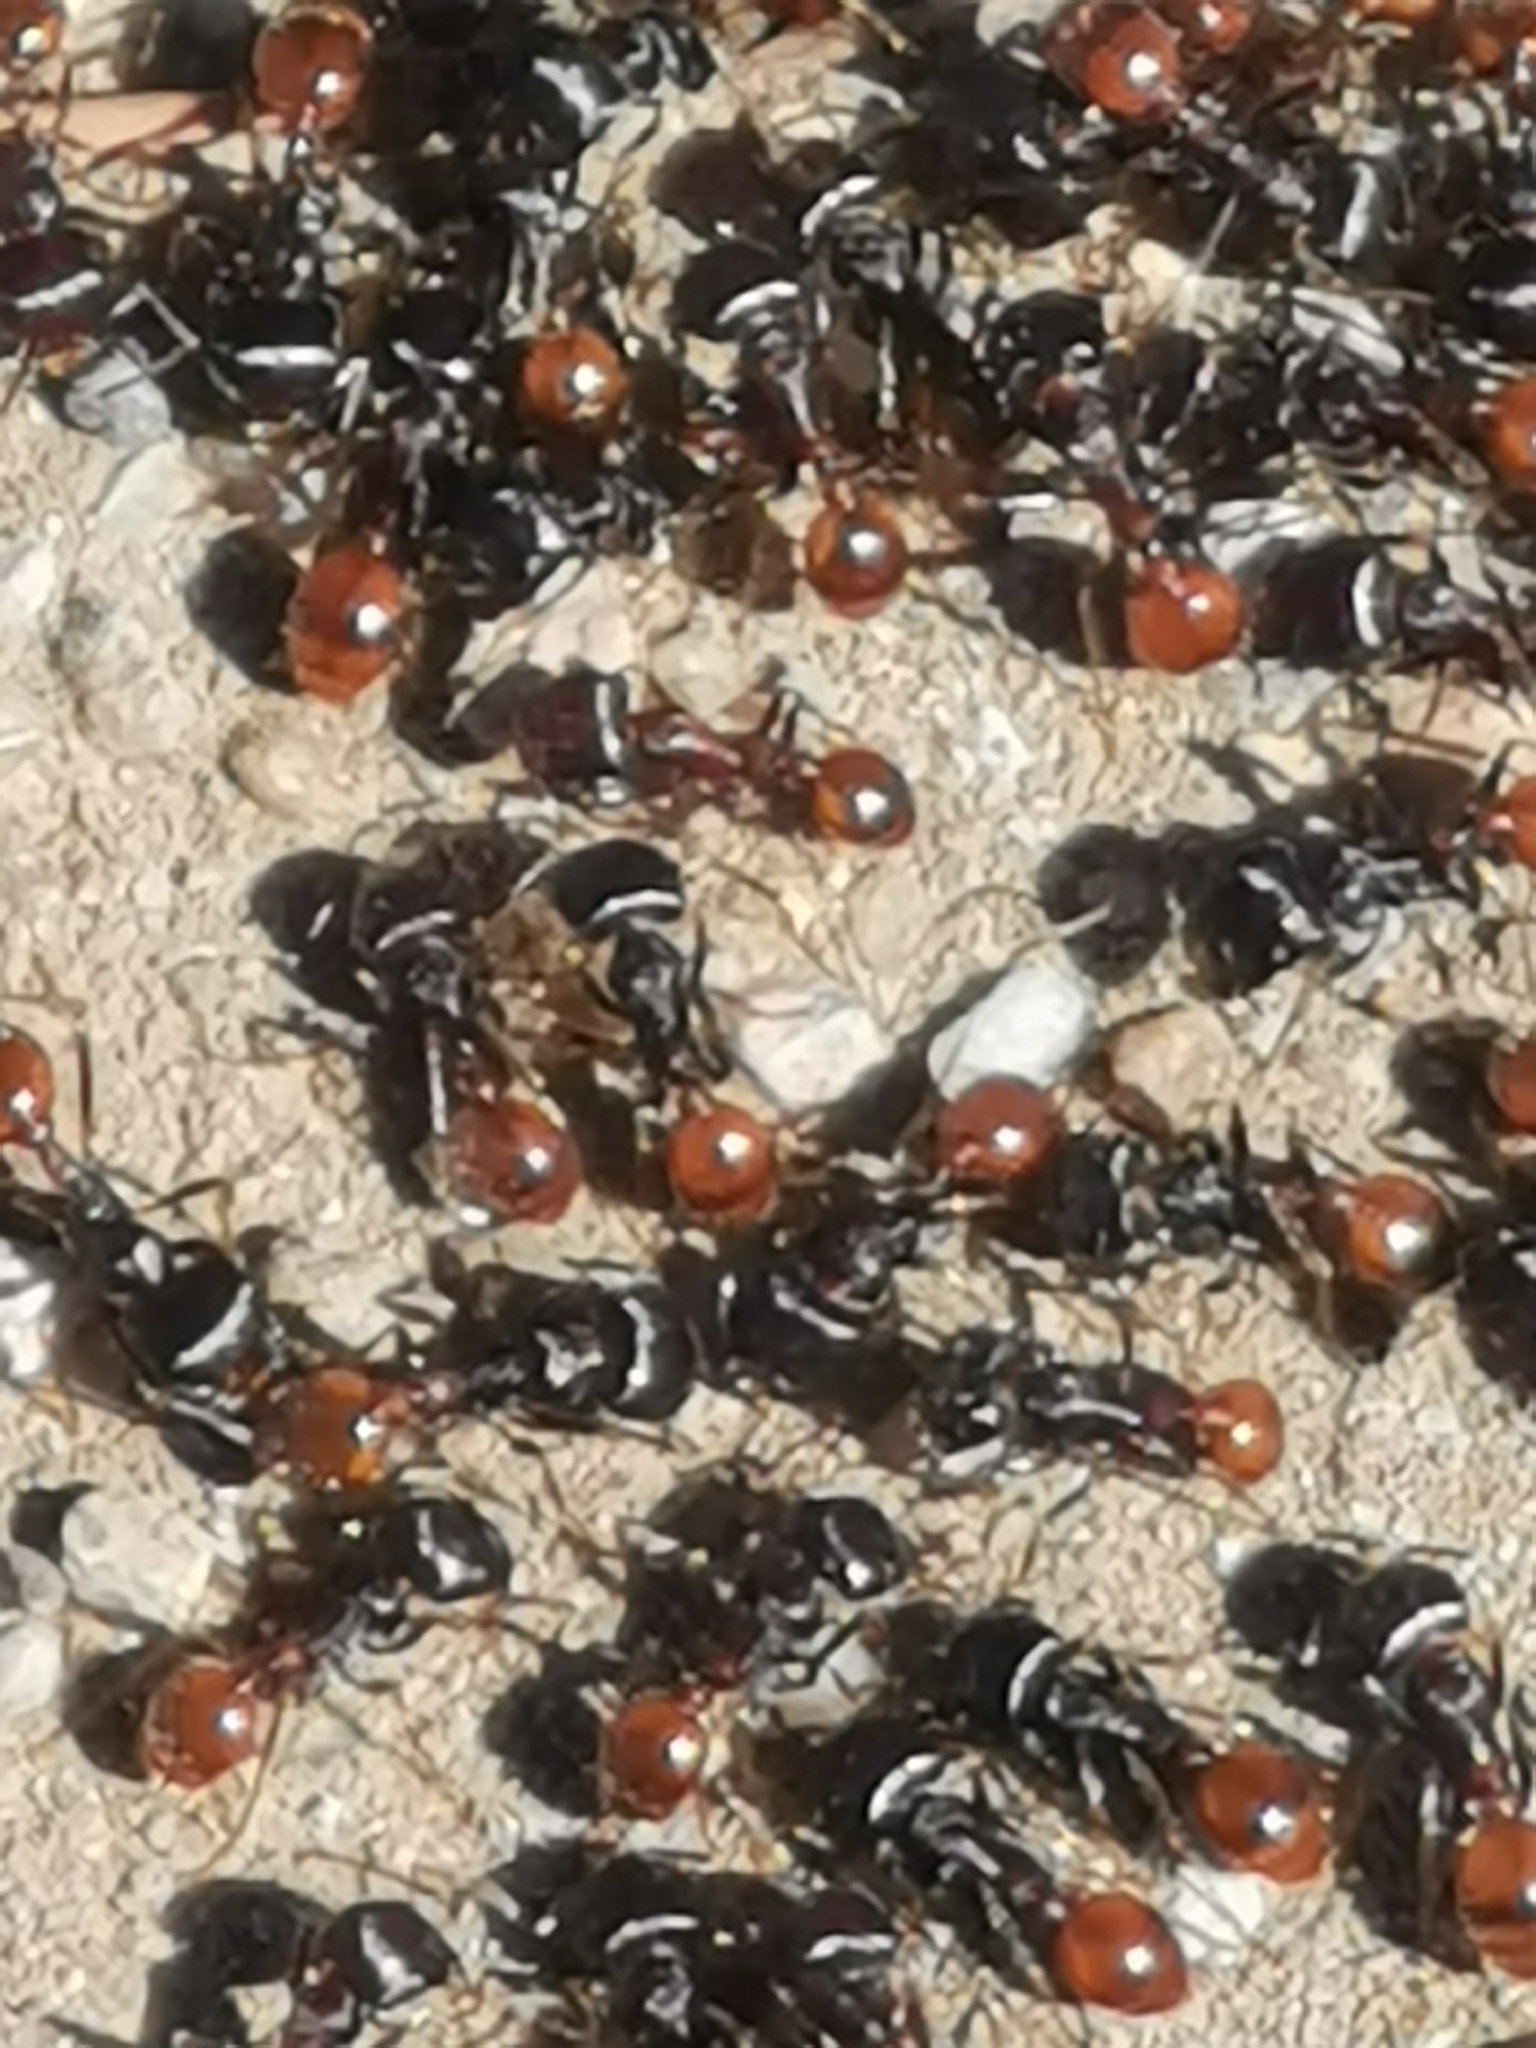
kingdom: Animalia
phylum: Arthropoda
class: Insecta
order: Hymenoptera
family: Formicidae
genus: Pogonomyrmex
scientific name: Pogonomyrmex rugosus
